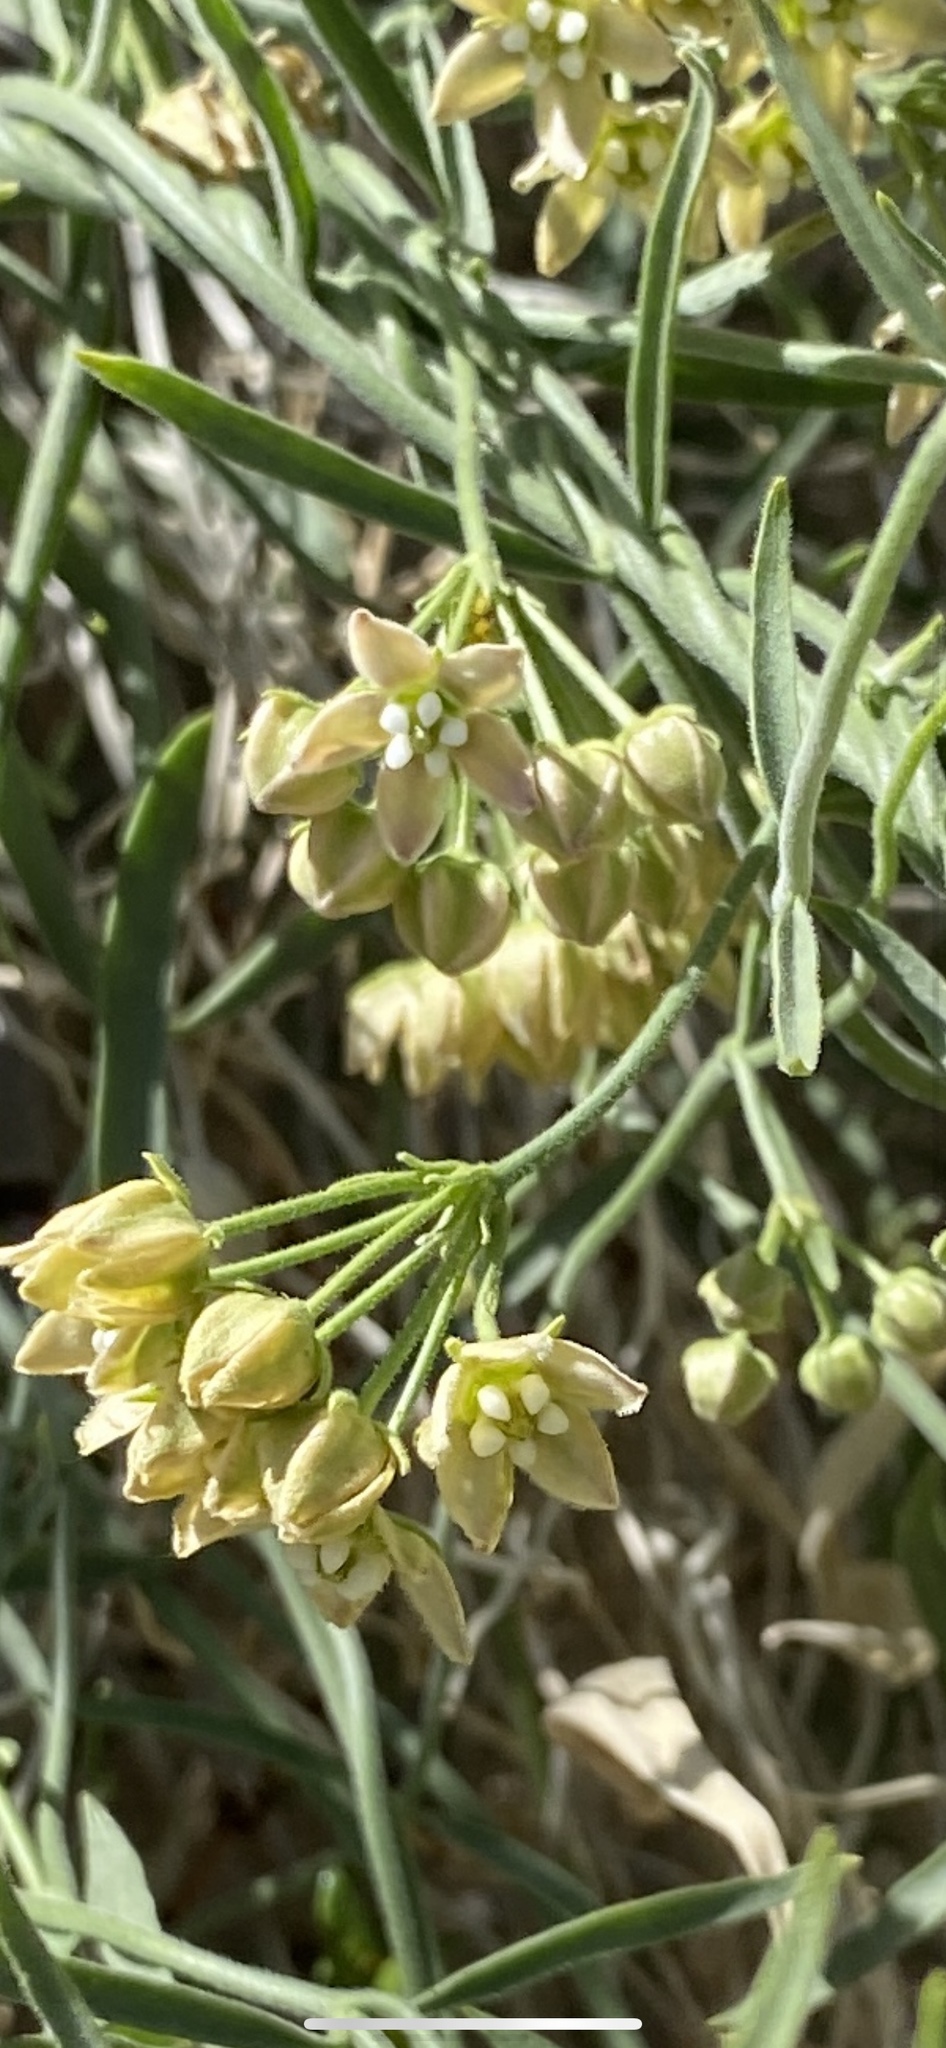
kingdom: Plantae
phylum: Tracheophyta
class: Magnoliopsida
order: Gentianales
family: Apocynaceae
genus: Funastrum
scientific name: Funastrum hirtellum
